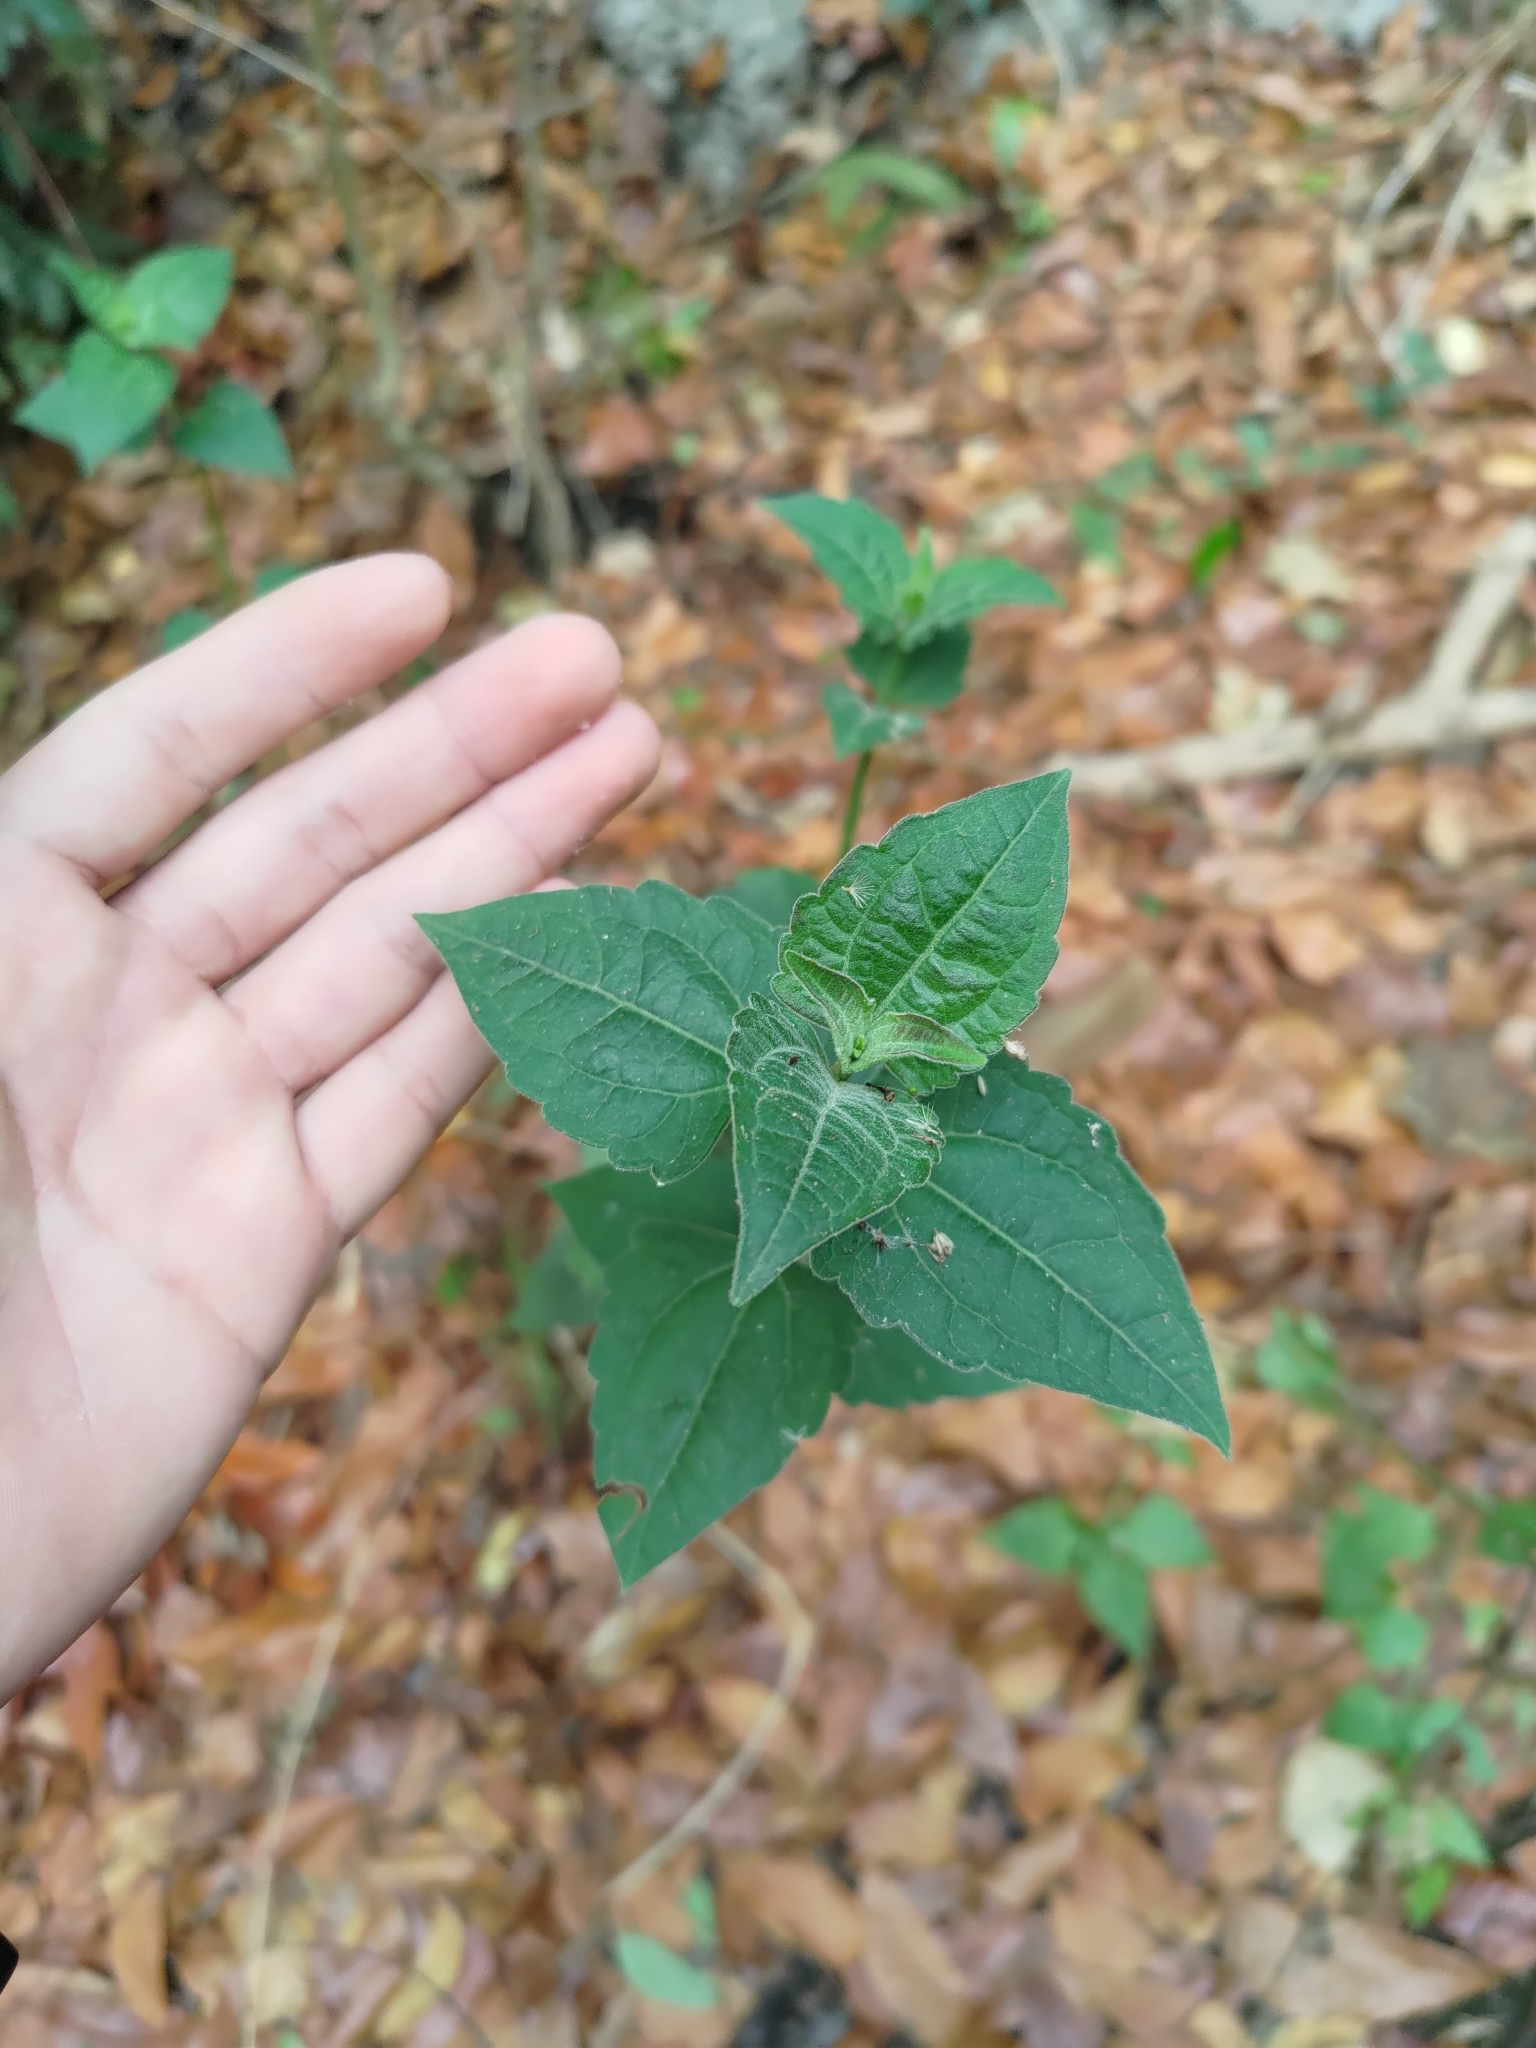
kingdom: Plantae
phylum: Tracheophyta
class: Magnoliopsida
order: Asterales
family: Asteraceae
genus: Chromolaena
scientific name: Chromolaena odorata
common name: Siamweed
